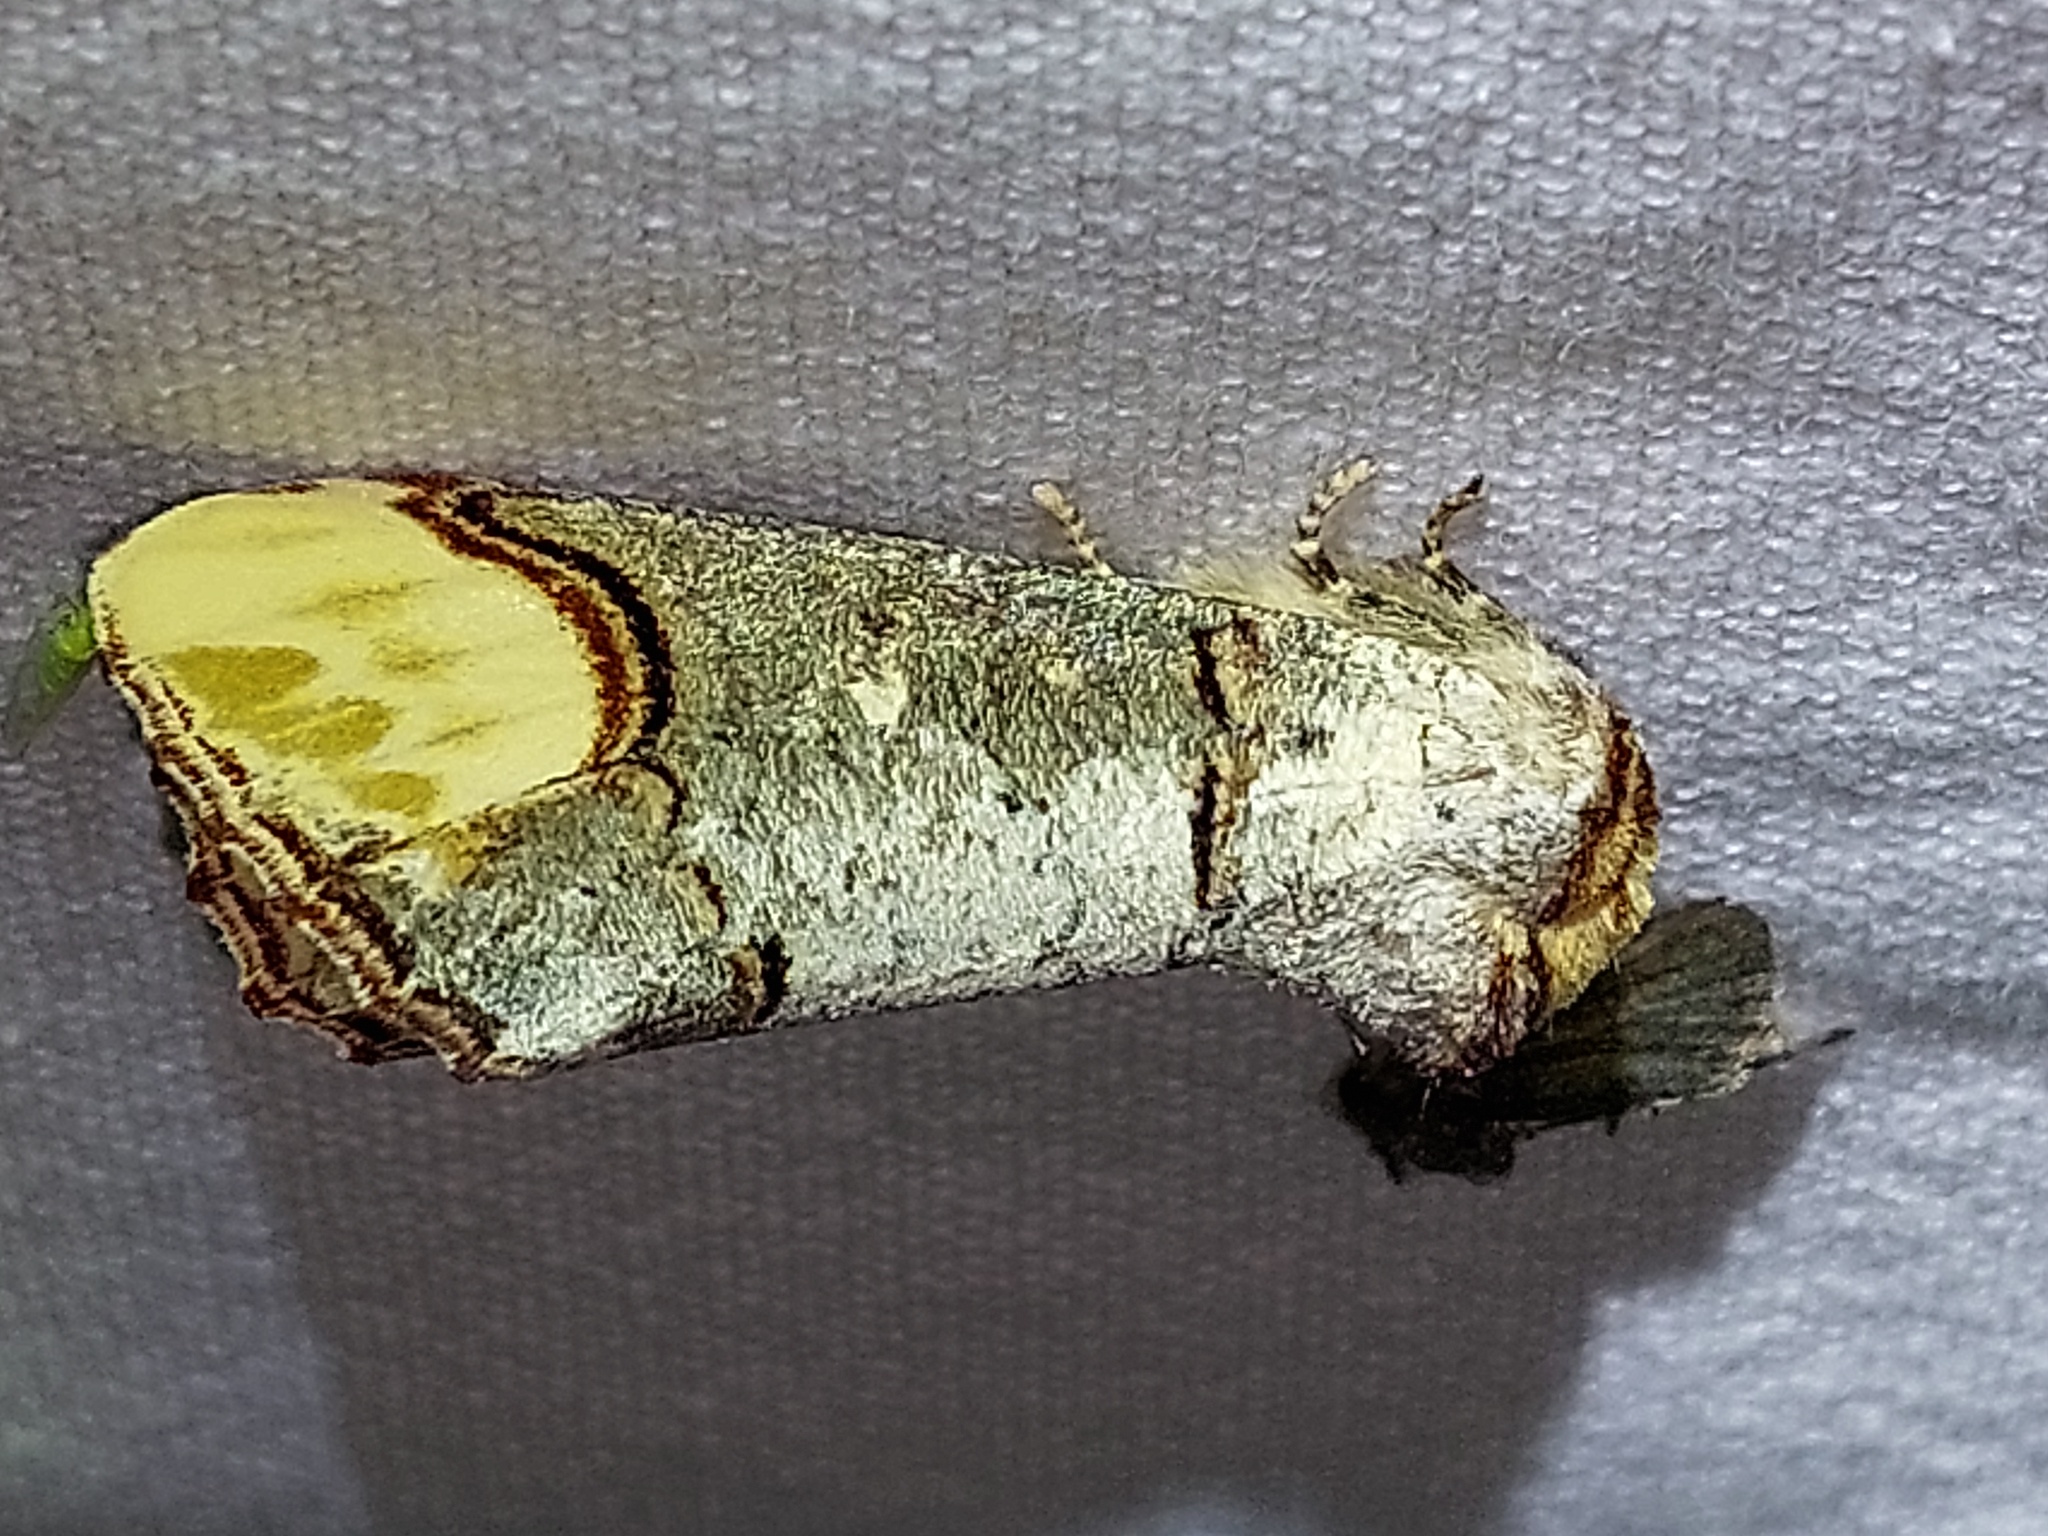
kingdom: Animalia
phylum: Arthropoda
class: Insecta
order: Lepidoptera
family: Notodontidae
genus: Phalera
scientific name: Phalera bucephala
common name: Buff-tip
